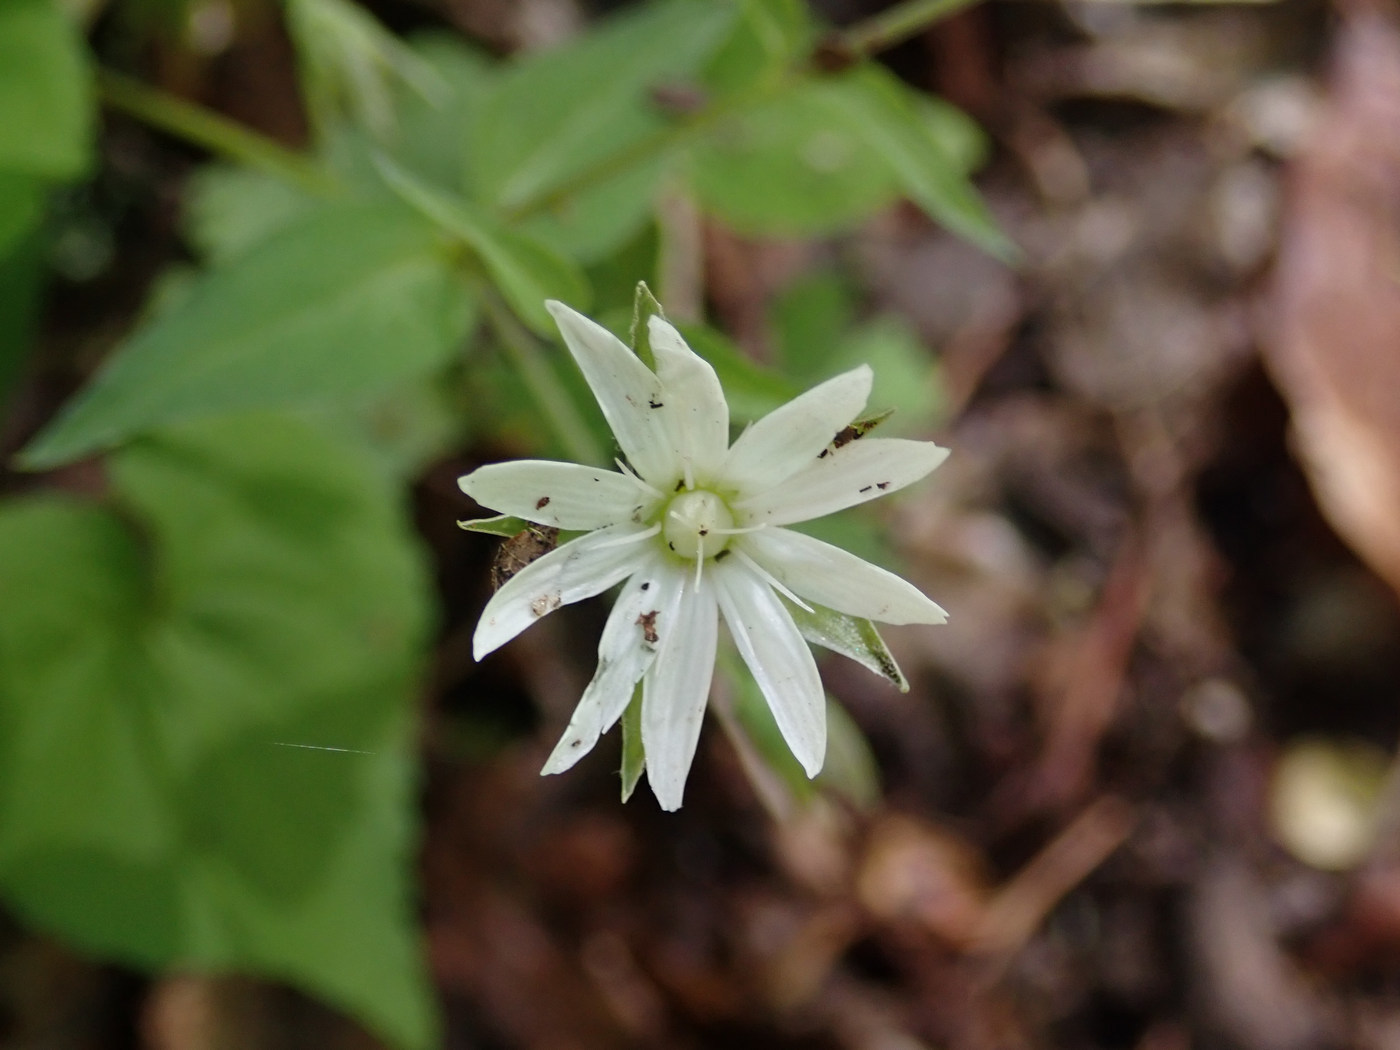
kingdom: Animalia
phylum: Arthropoda
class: Insecta
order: Diptera
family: Anthomyiidae
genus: Pegomya
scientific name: Pegomya flavifrons
